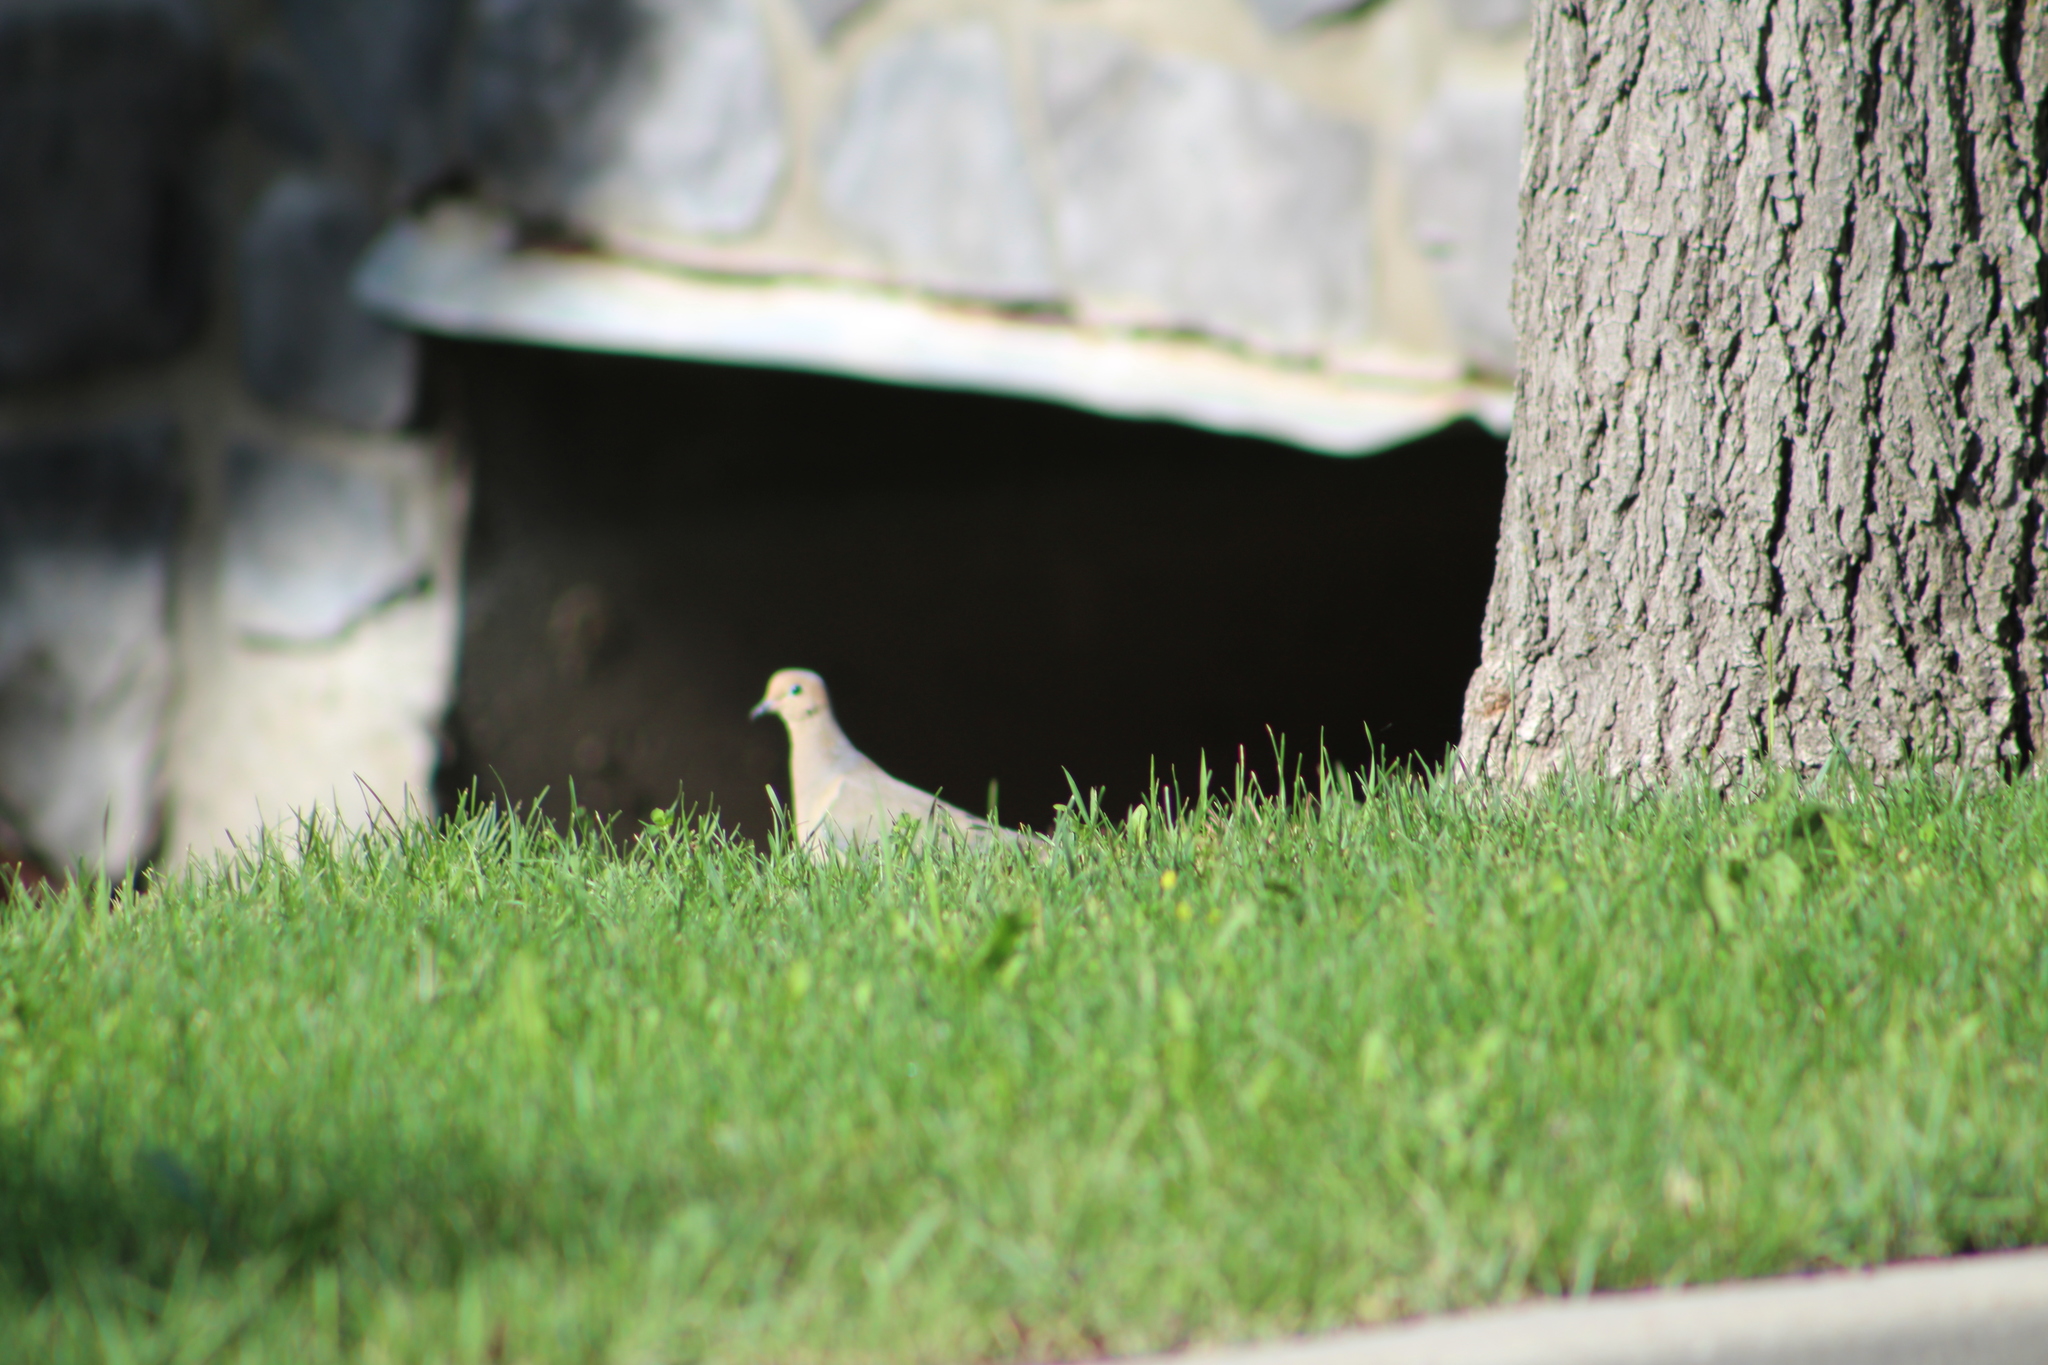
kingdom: Animalia
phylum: Chordata
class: Aves
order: Columbiformes
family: Columbidae
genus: Zenaida
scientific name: Zenaida macroura
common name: Mourning dove
